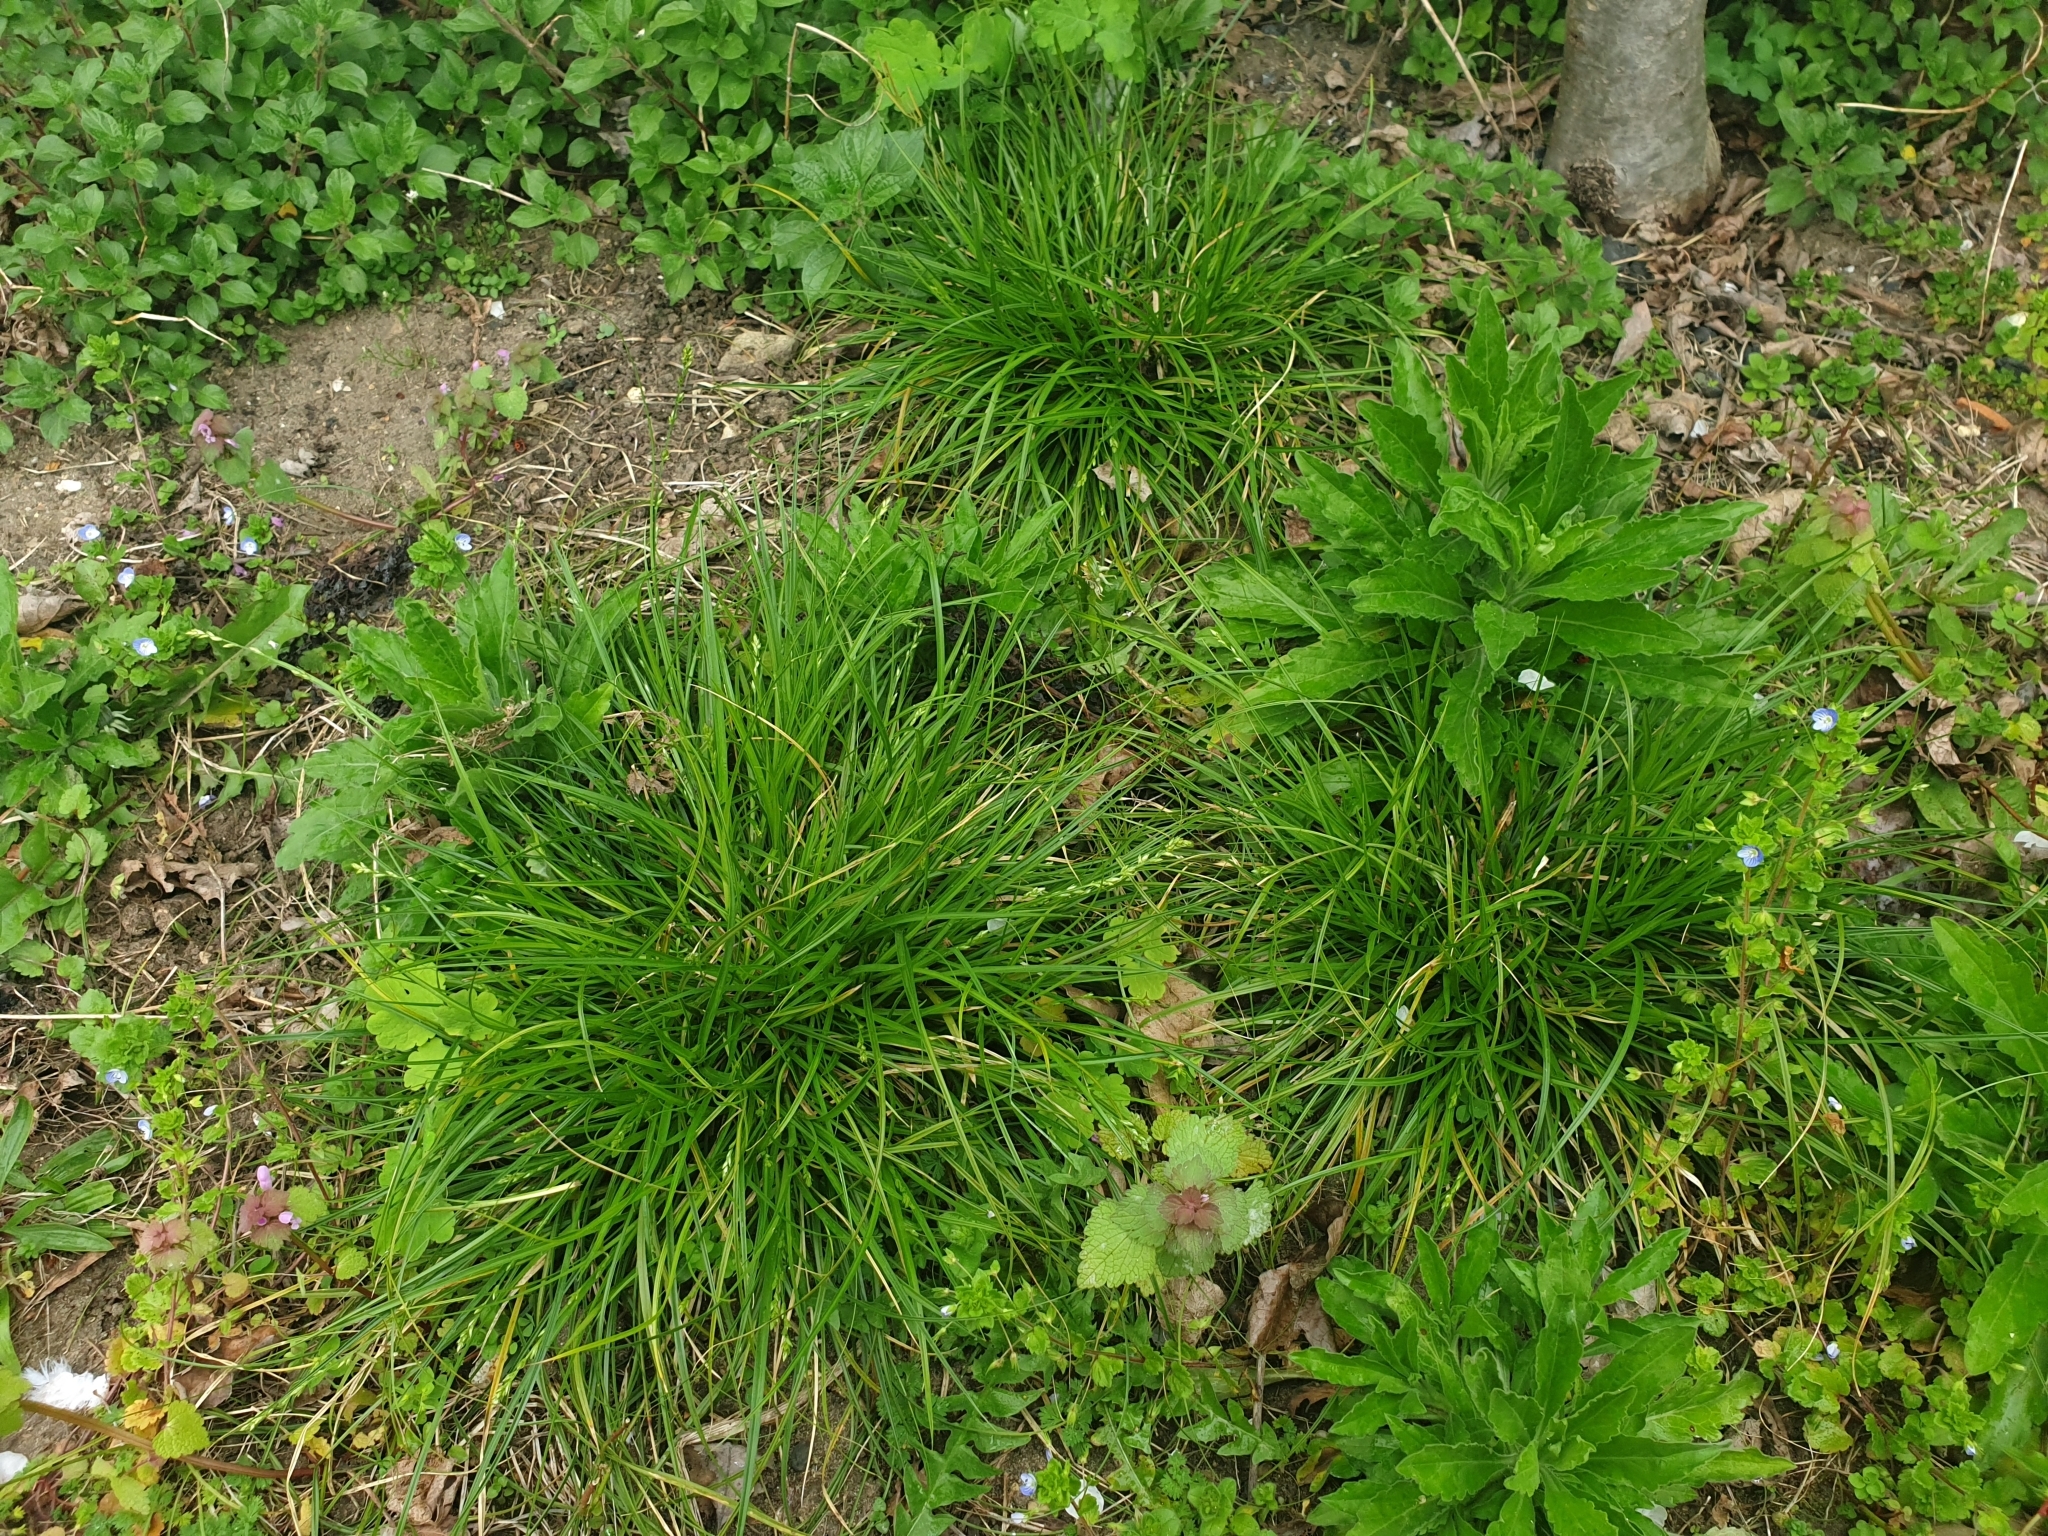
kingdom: Plantae
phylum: Tracheophyta
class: Liliopsida
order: Poales
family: Cyperaceae
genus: Carex
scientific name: Carex divulsa
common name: Grassland sedge
